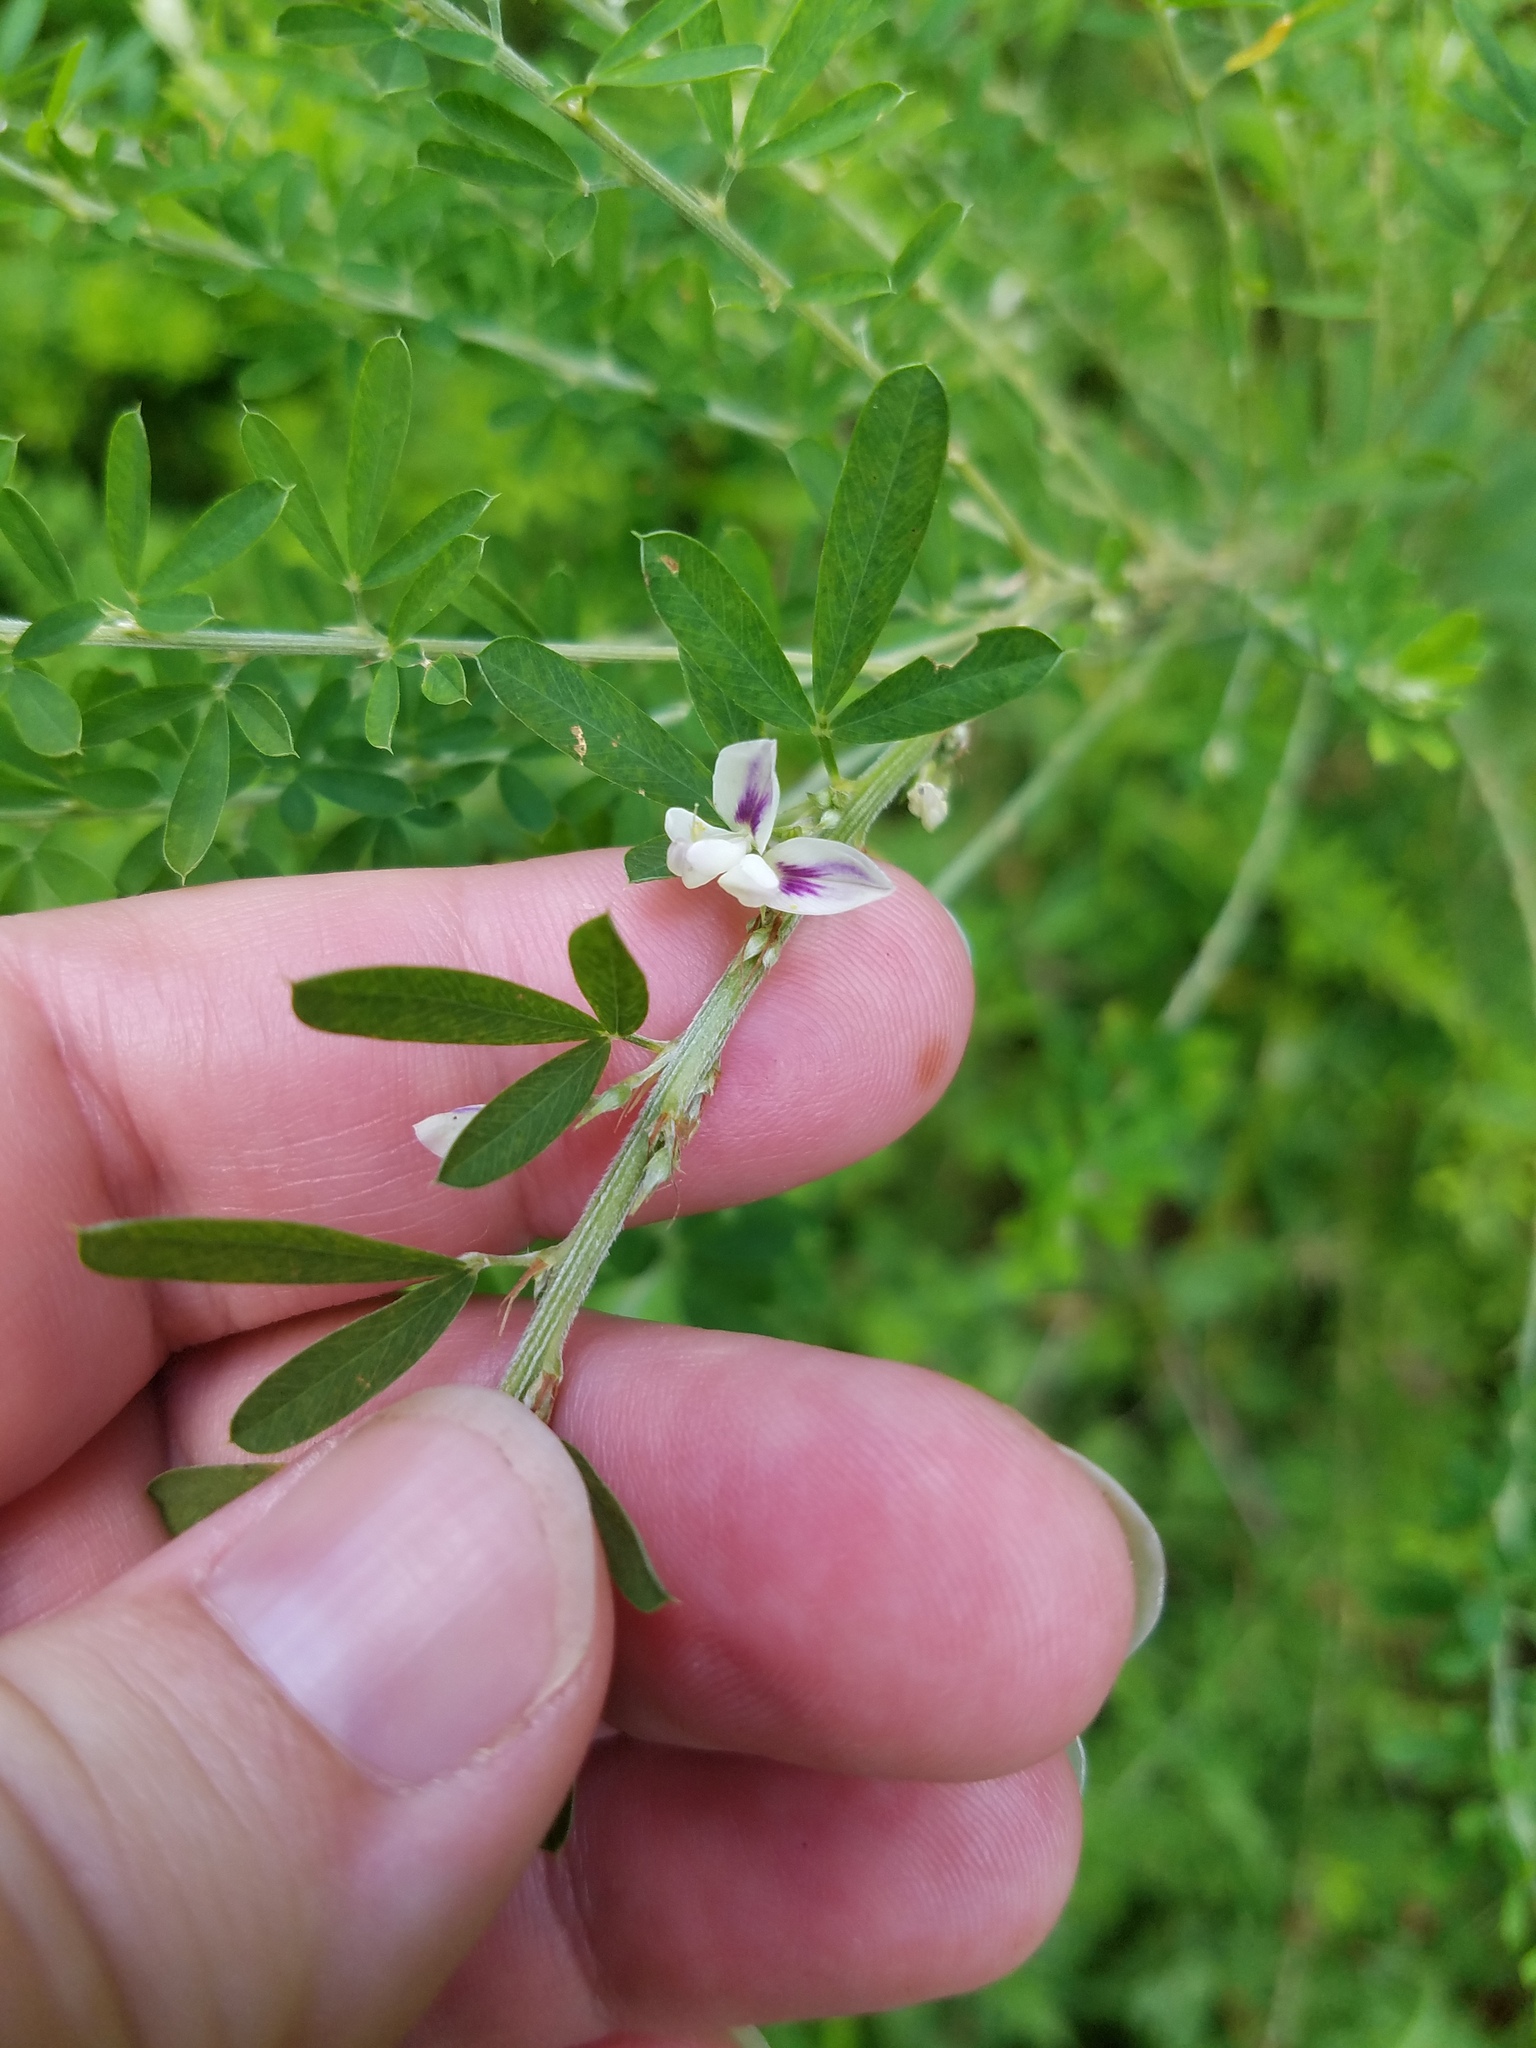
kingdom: Plantae
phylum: Tracheophyta
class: Magnoliopsida
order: Fabales
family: Fabaceae
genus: Lespedeza
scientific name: Lespedeza cuneata
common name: Chinese bush-clover
